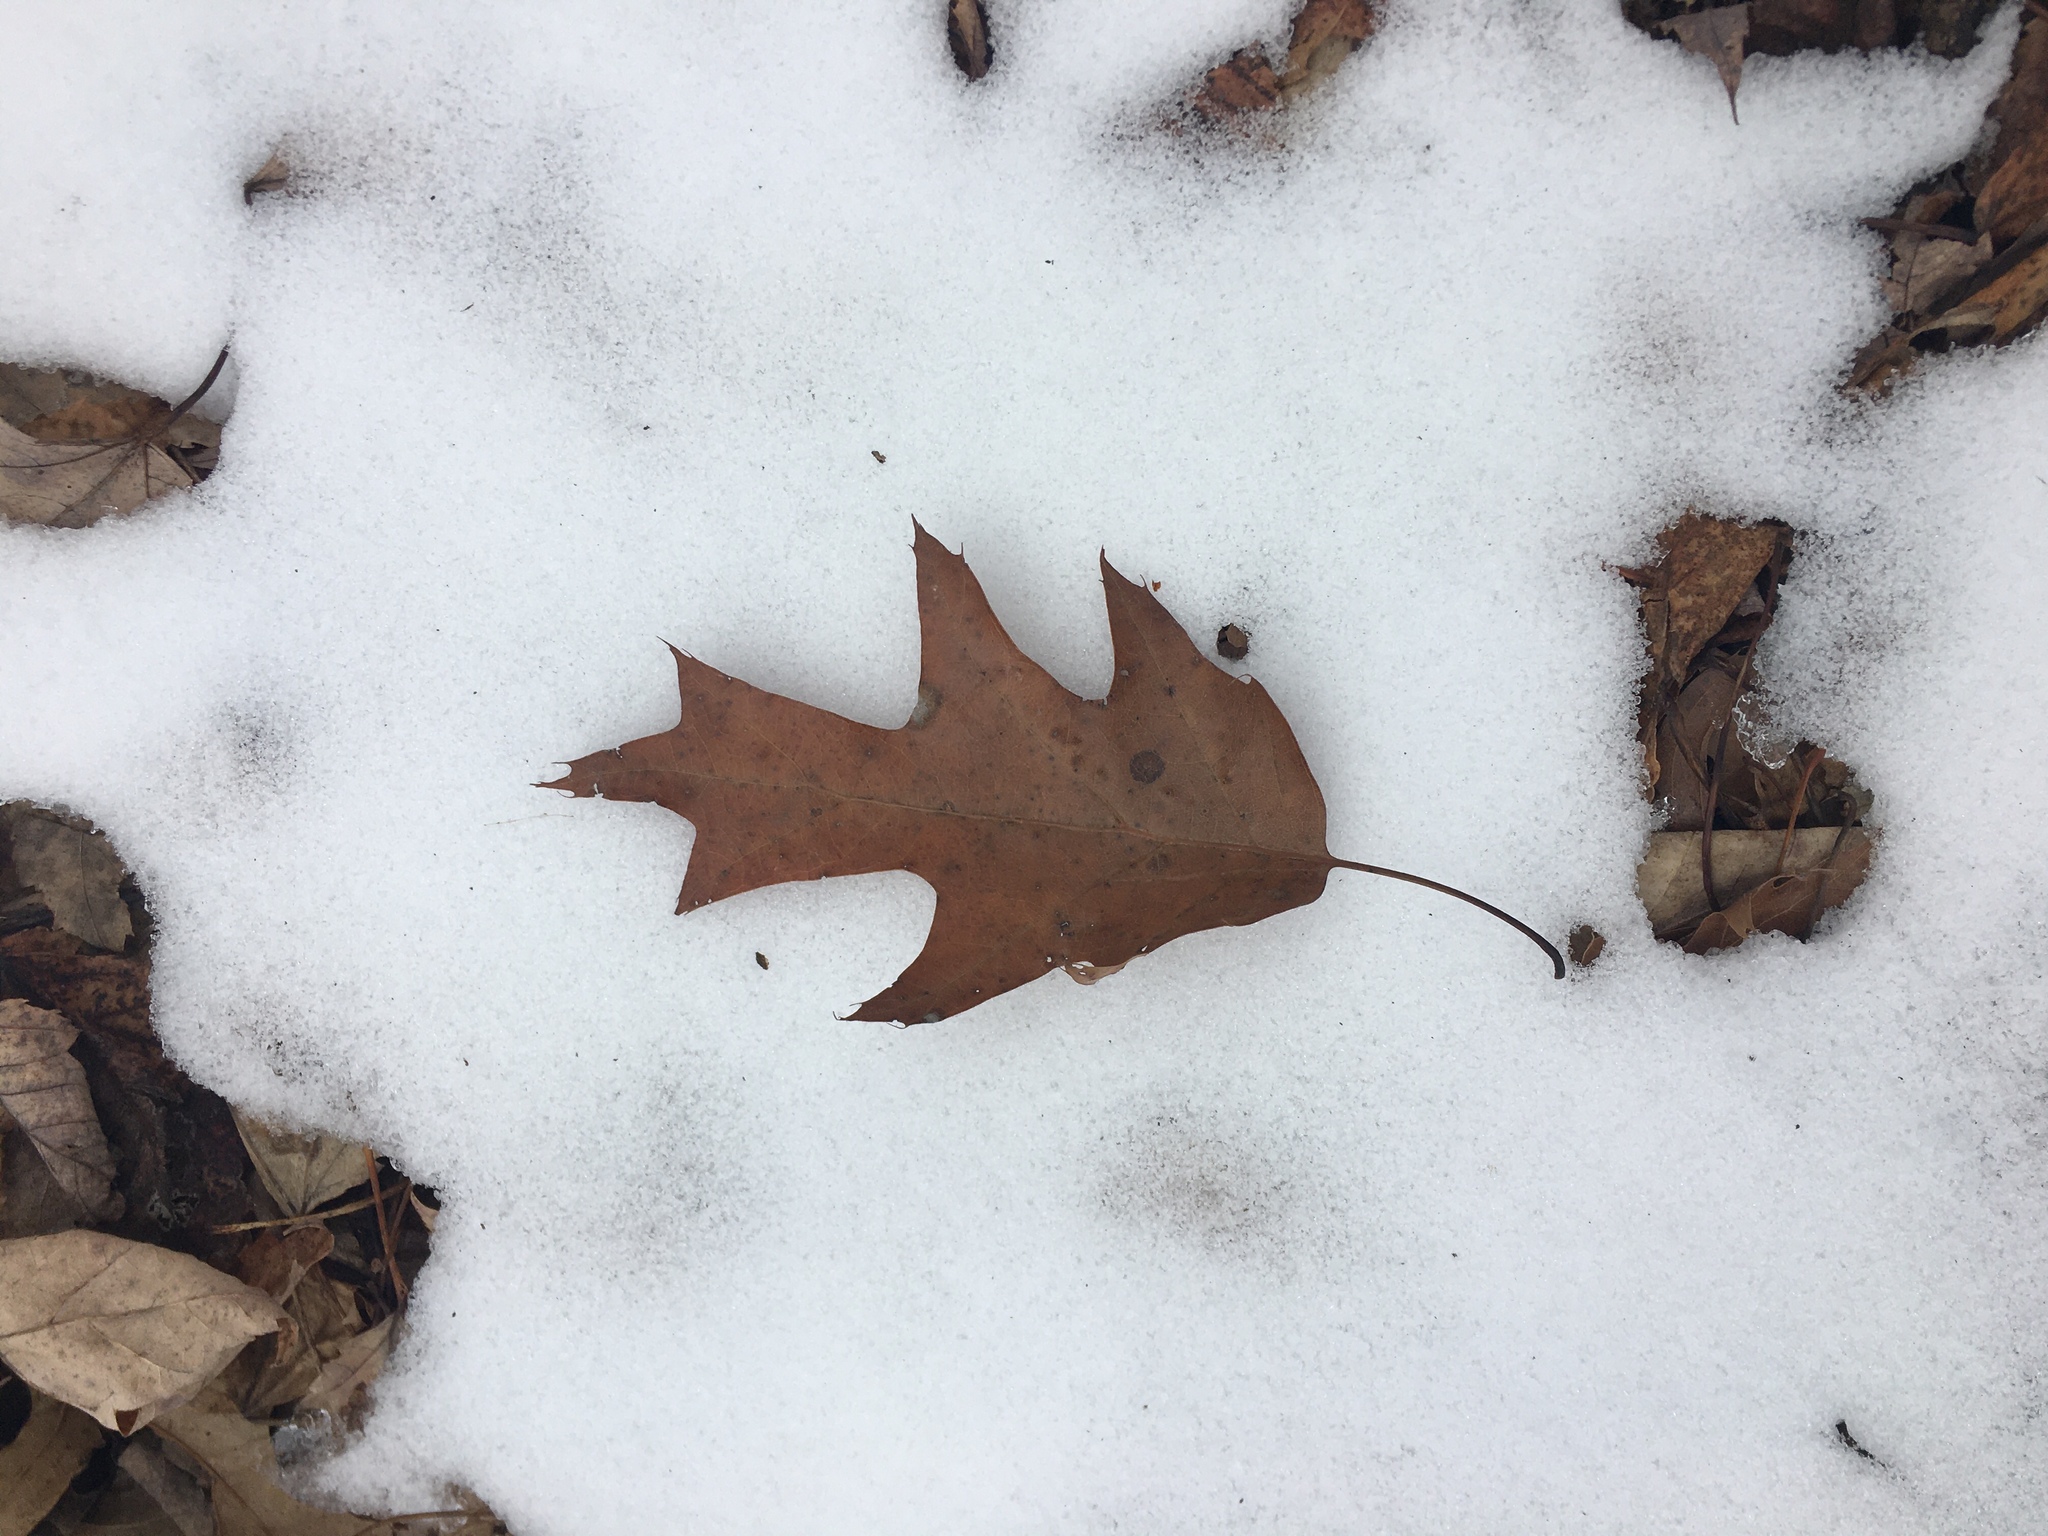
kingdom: Plantae
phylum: Tracheophyta
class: Magnoliopsida
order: Fagales
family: Fagaceae
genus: Quercus
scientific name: Quercus rubra
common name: Red oak
